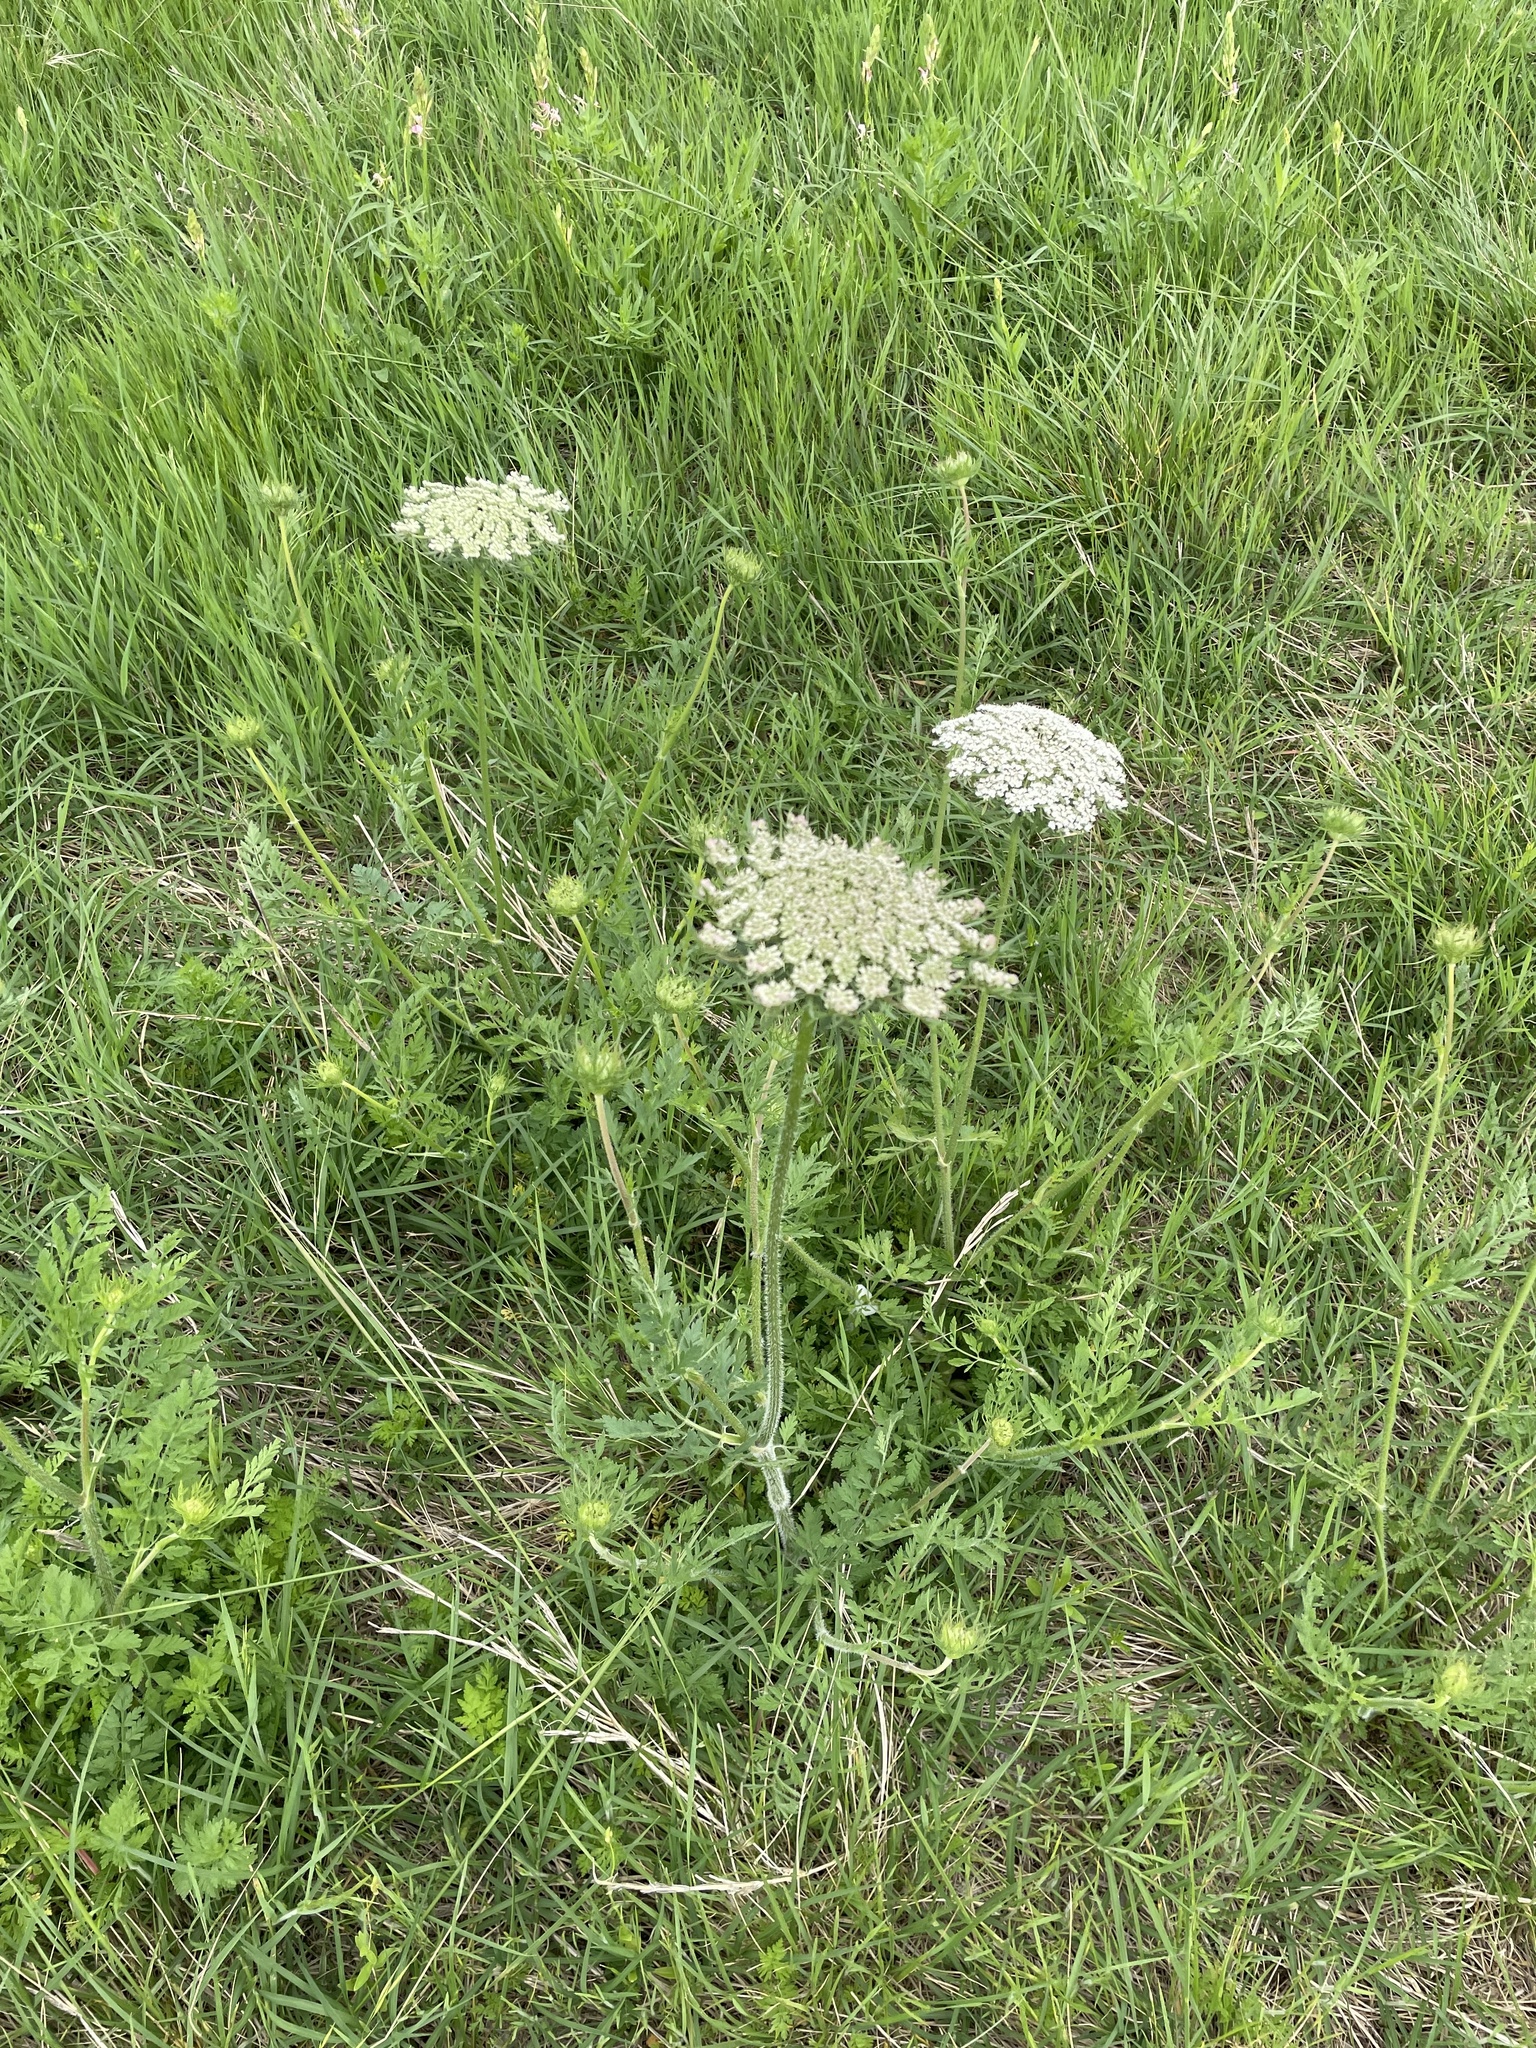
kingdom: Plantae
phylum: Tracheophyta
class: Magnoliopsida
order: Apiales
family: Apiaceae
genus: Daucus
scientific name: Daucus carota
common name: Wild carrot
